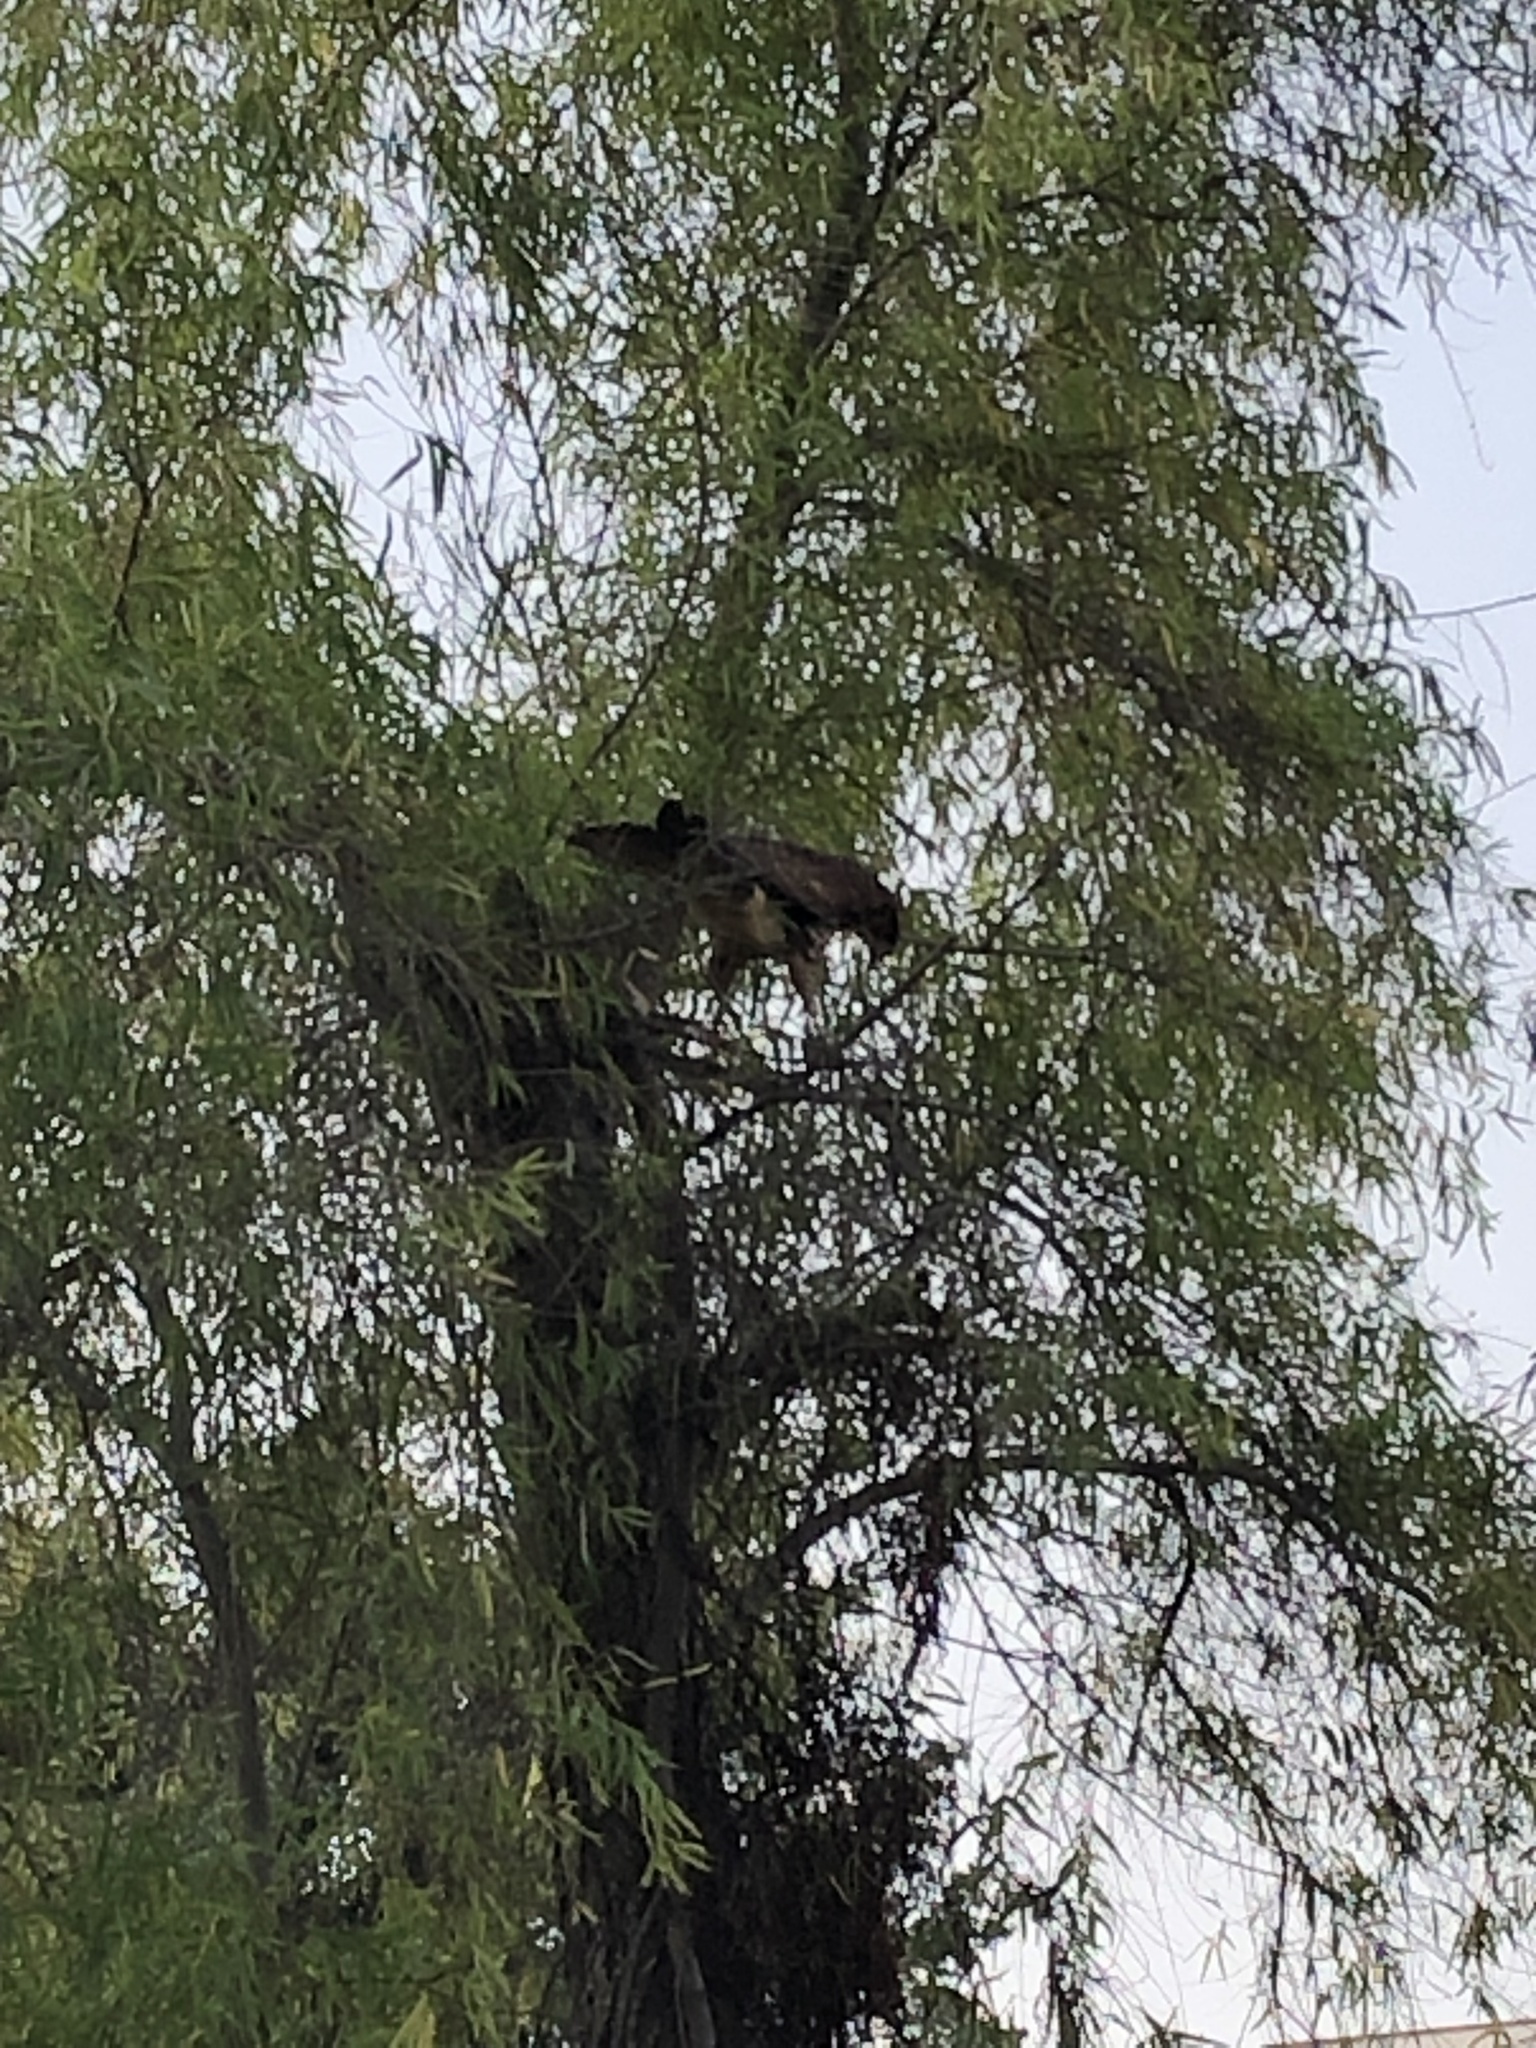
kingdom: Animalia
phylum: Chordata
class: Aves
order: Accipitriformes
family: Accipitridae
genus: Parabuteo
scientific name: Parabuteo unicinctus
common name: Harris's hawk
